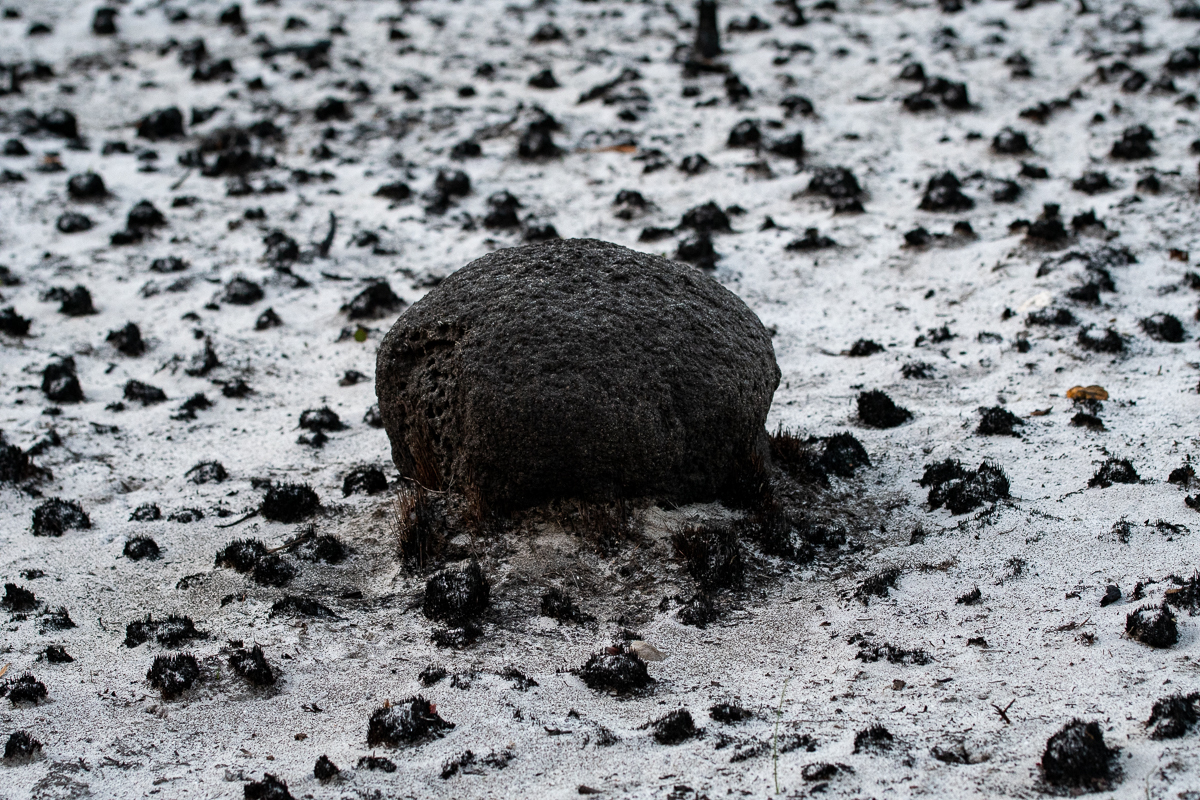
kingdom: Animalia
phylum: Arthropoda
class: Insecta
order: Blattodea
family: Termitidae
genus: Amitermes
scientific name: Amitermes hastatus
